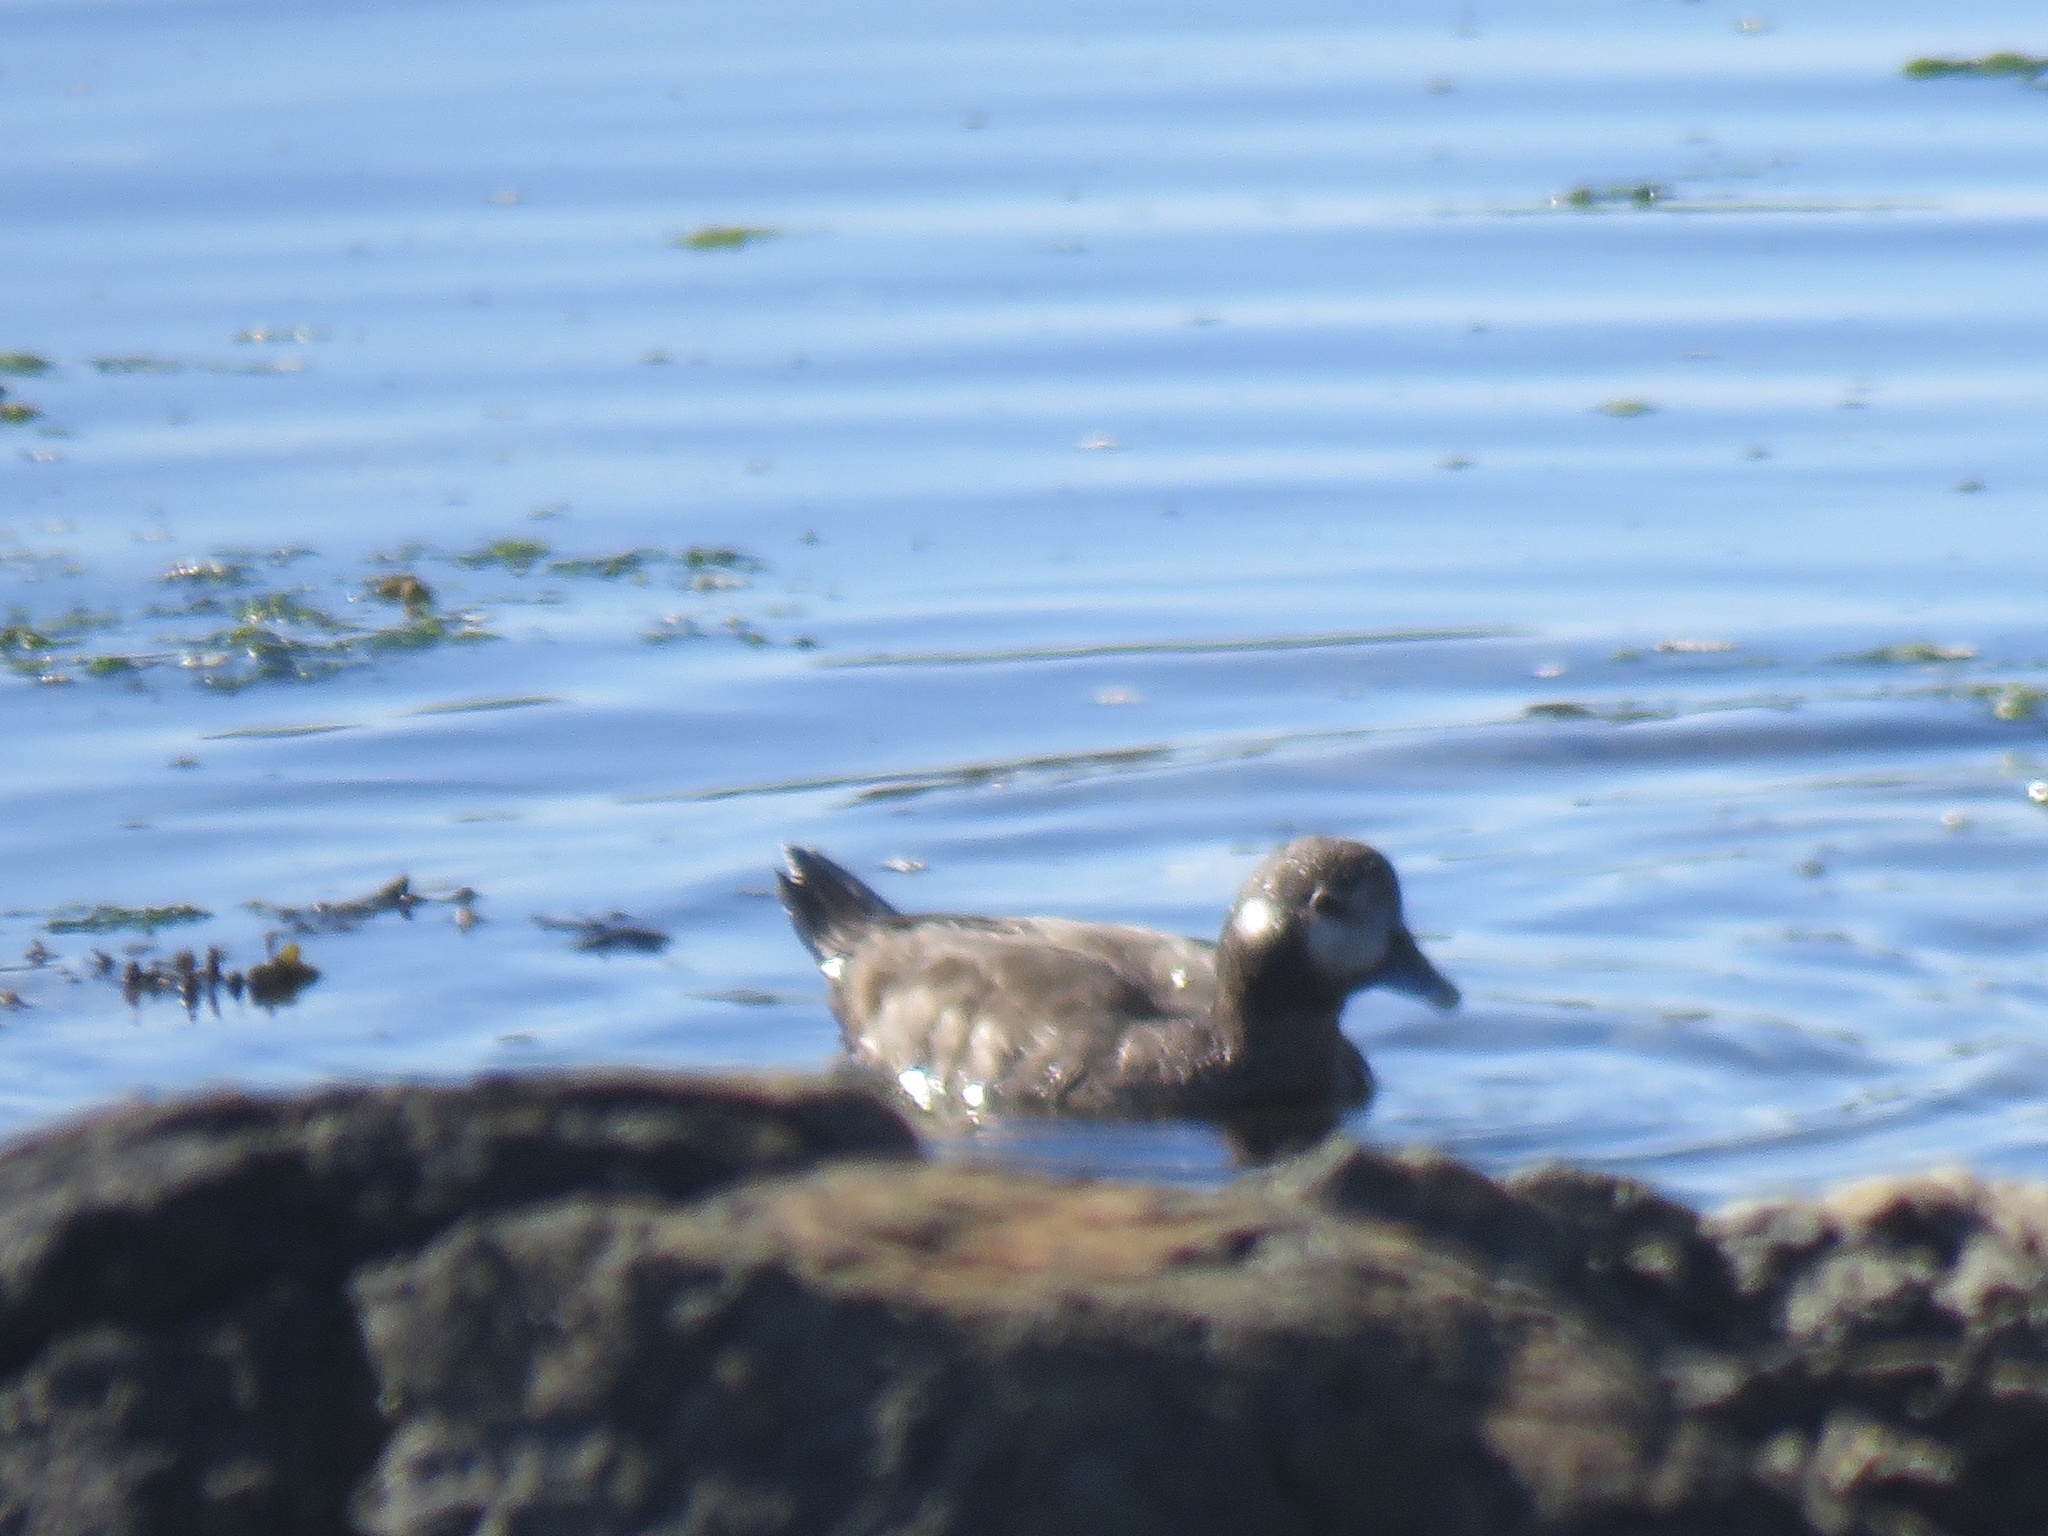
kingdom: Animalia
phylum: Chordata
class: Aves
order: Anseriformes
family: Anatidae
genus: Histrionicus
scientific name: Histrionicus histrionicus
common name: Harlequin duck
